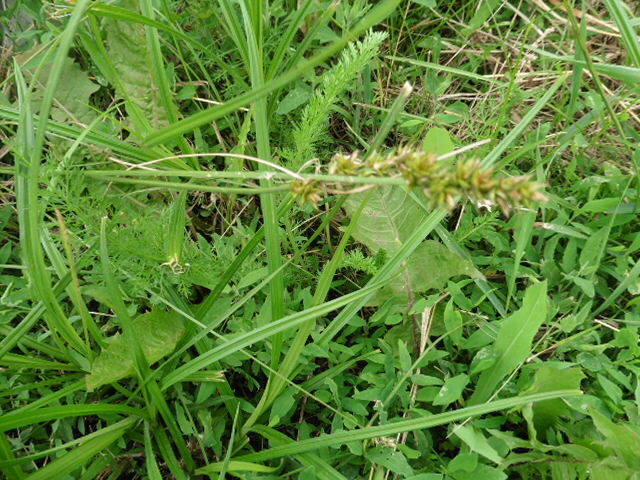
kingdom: Plantae
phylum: Tracheophyta
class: Liliopsida
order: Poales
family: Cyperaceae
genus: Carex
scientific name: Carex spicata
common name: Spiked sedge
